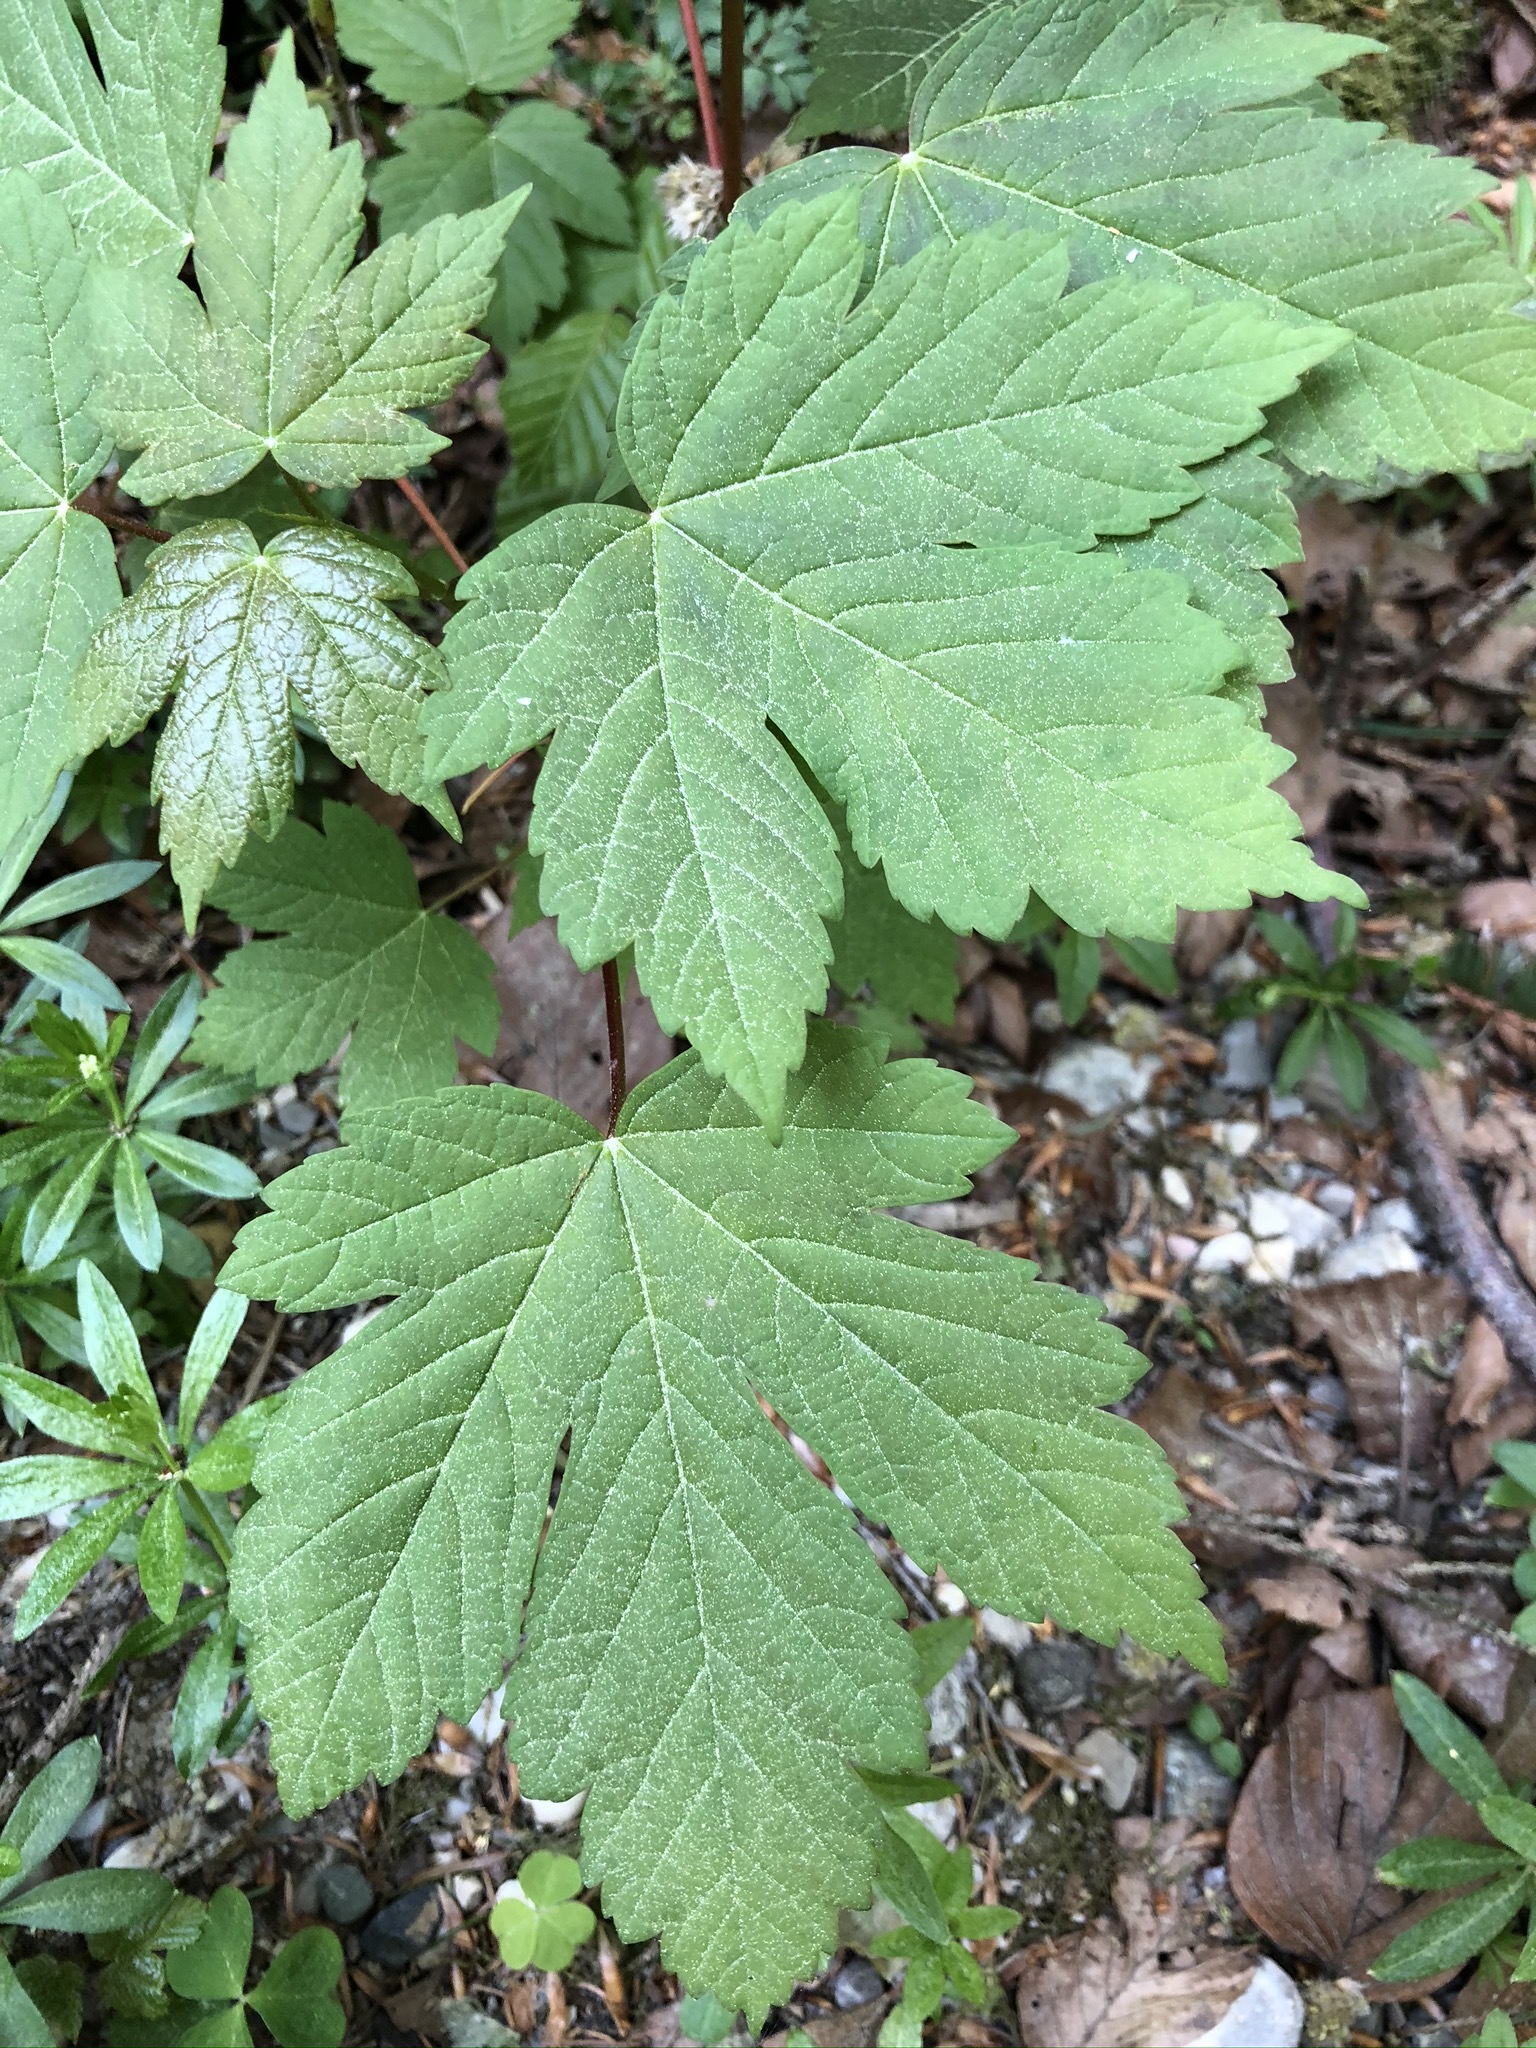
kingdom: Plantae
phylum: Tracheophyta
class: Magnoliopsida
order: Sapindales
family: Sapindaceae
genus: Acer
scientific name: Acer pseudoplatanus
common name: Sycamore
